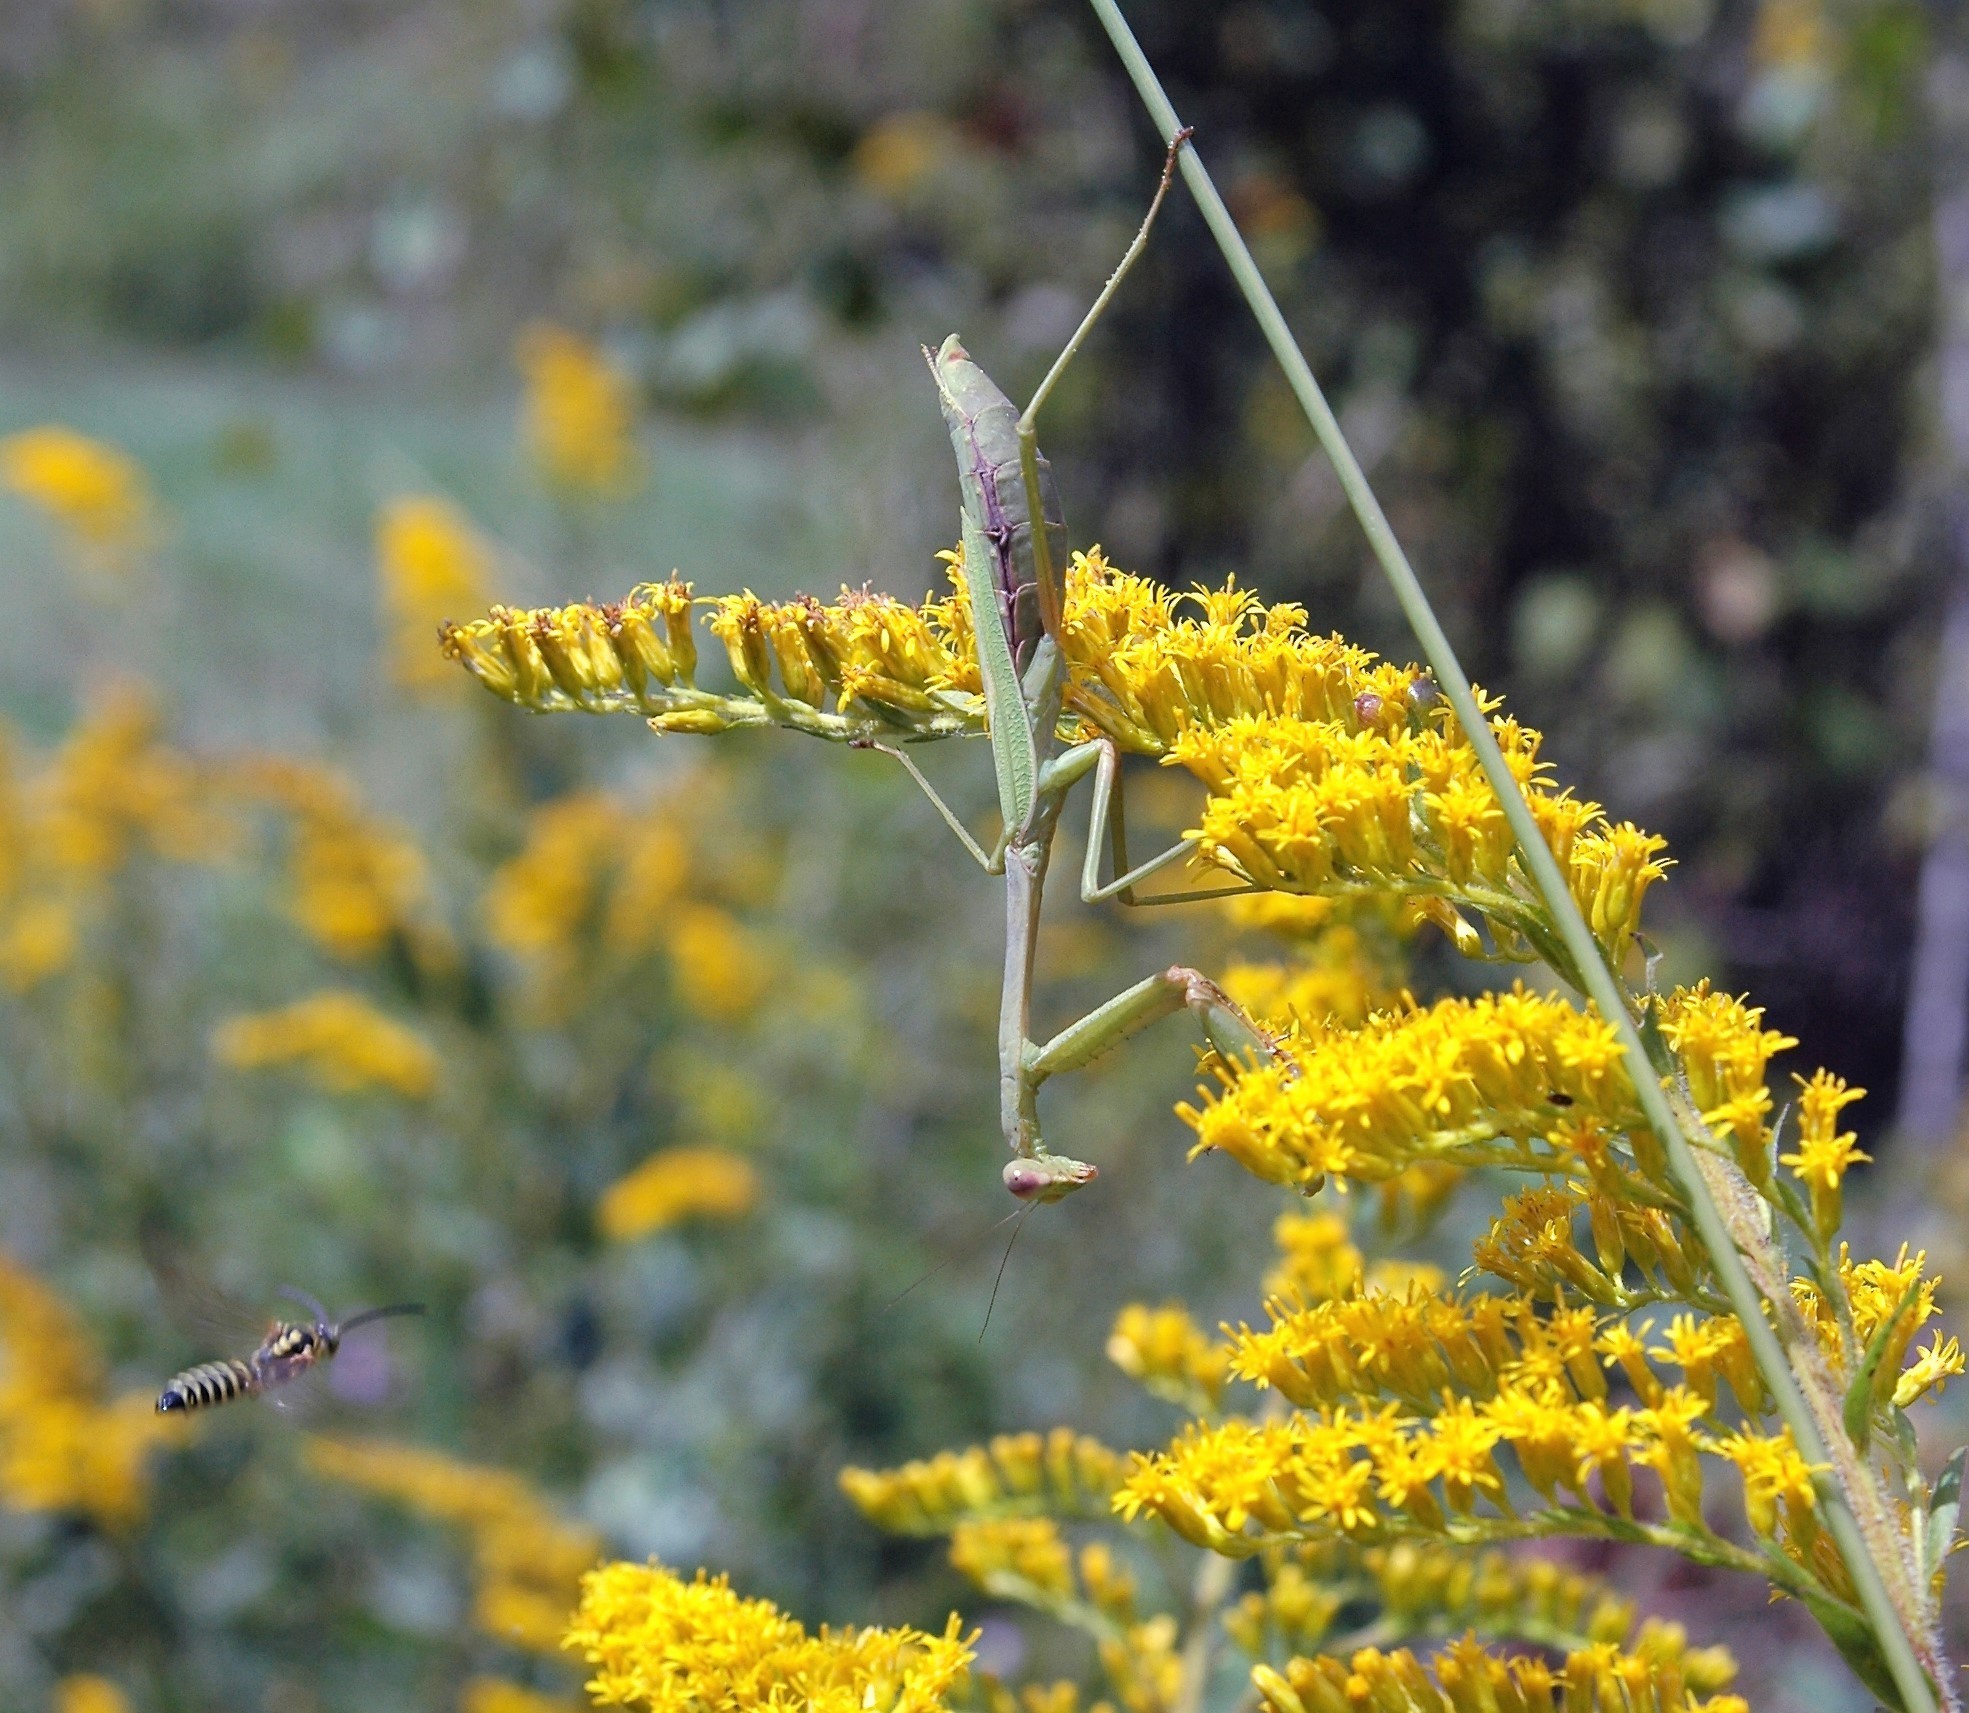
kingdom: Animalia
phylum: Arthropoda
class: Insecta
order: Mantodea
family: Mantidae
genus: Stagmomantis
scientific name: Stagmomantis carolina
